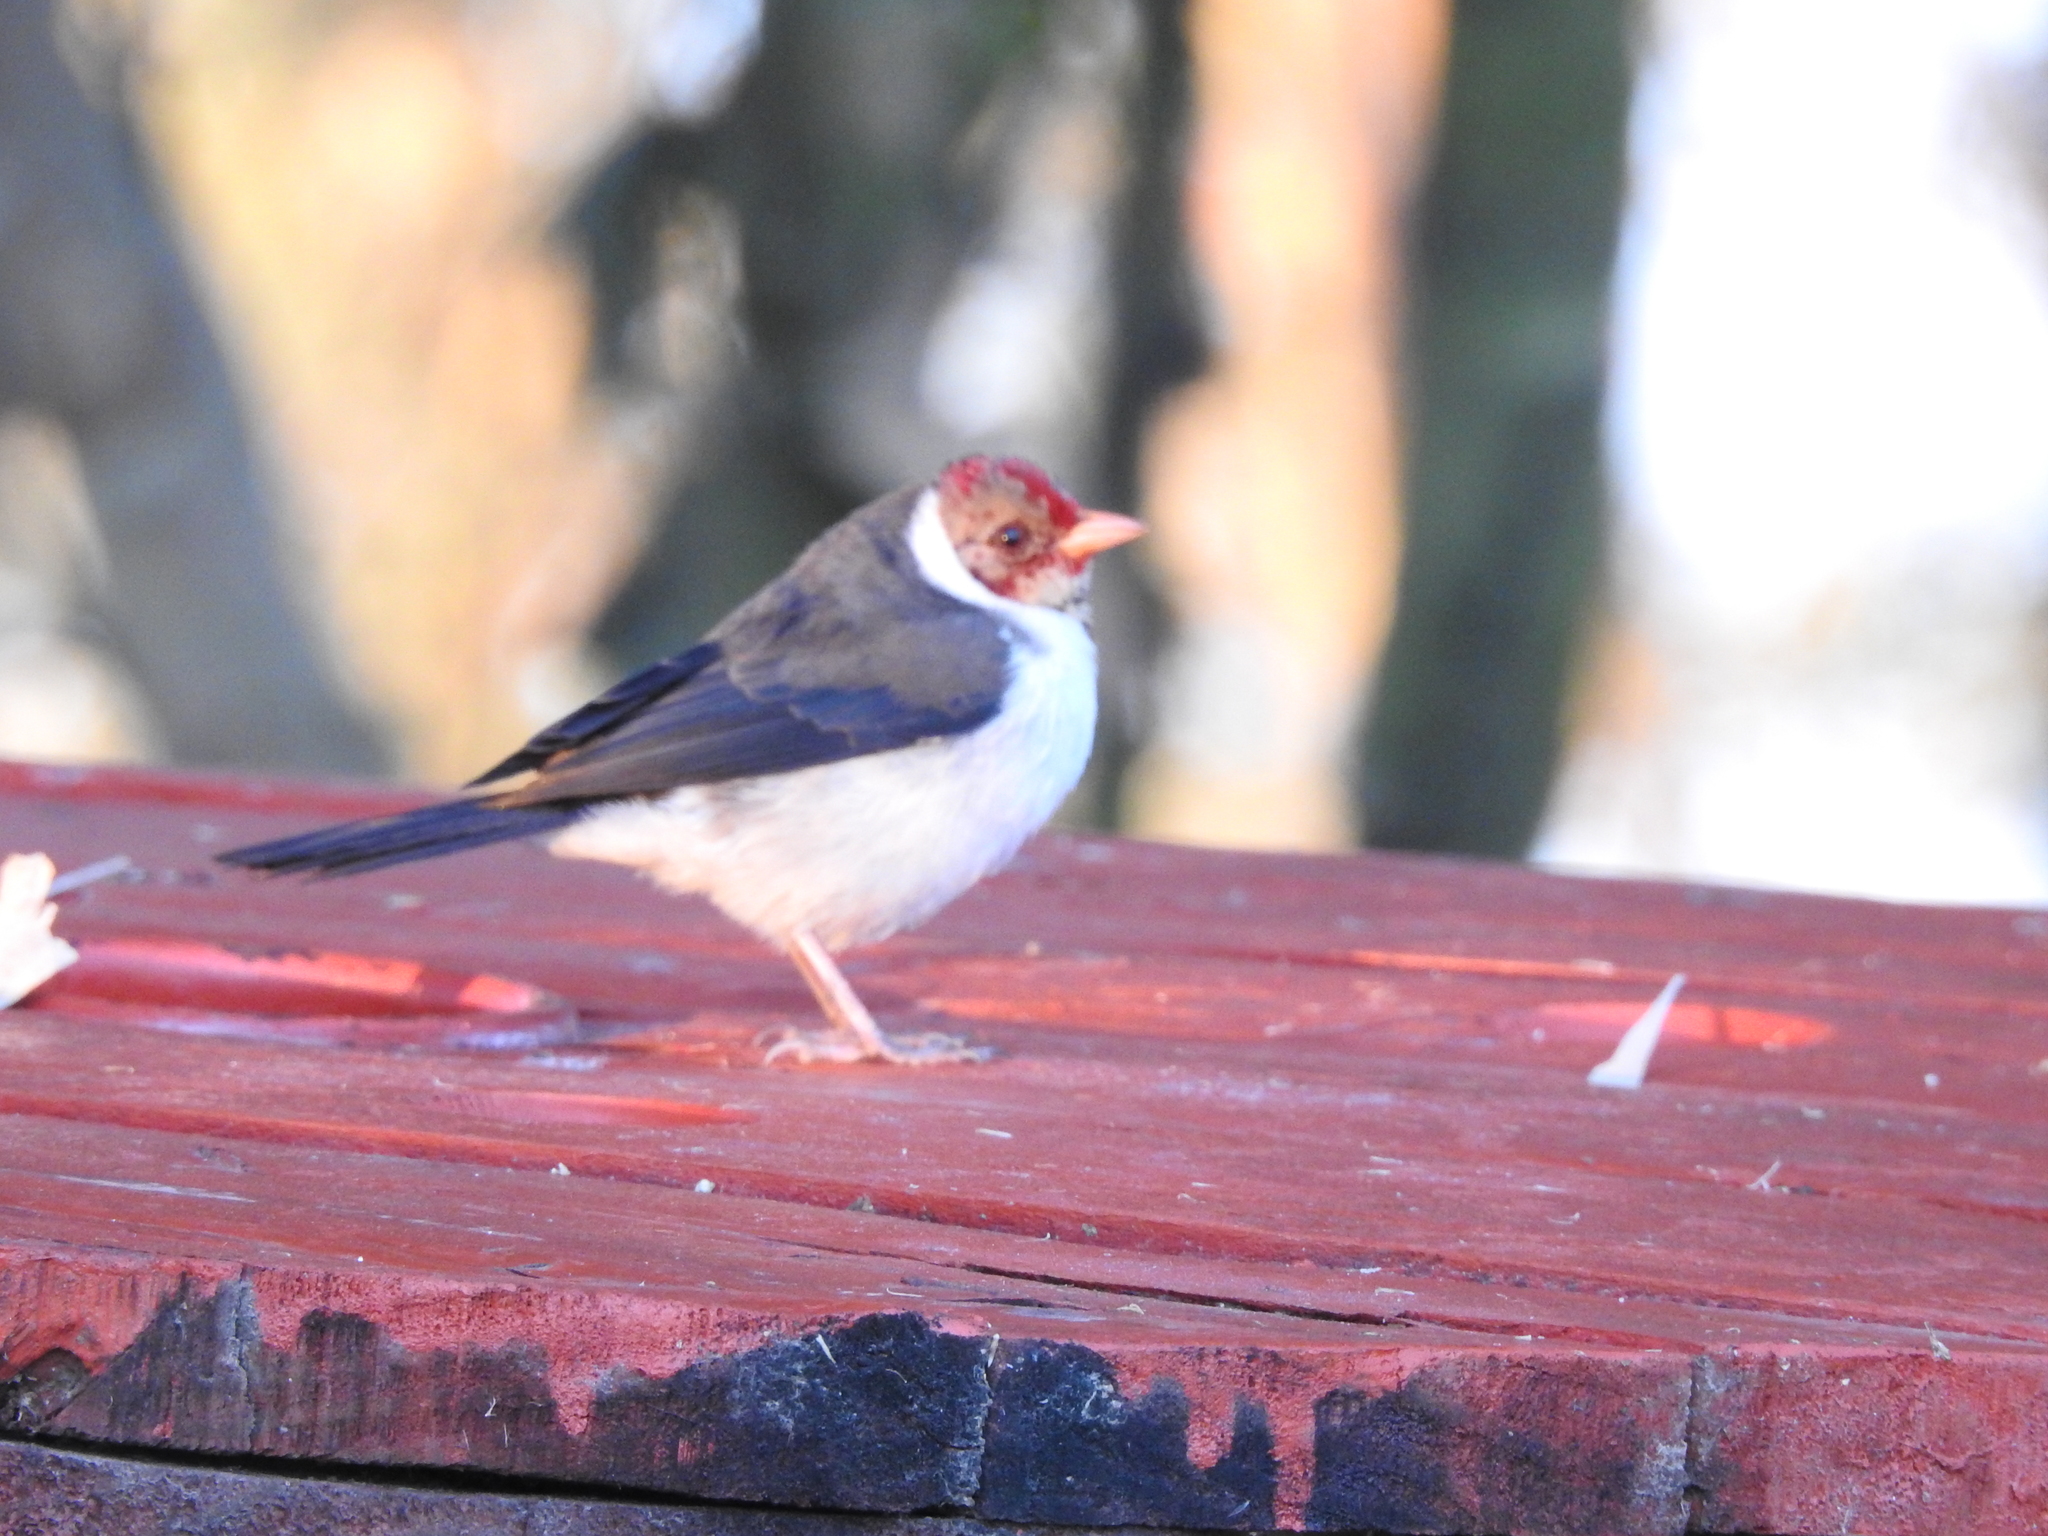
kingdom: Animalia
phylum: Chordata
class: Aves
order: Passeriformes
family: Thraupidae
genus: Paroaria
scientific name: Paroaria capitata
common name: Yellow-billed cardinal
